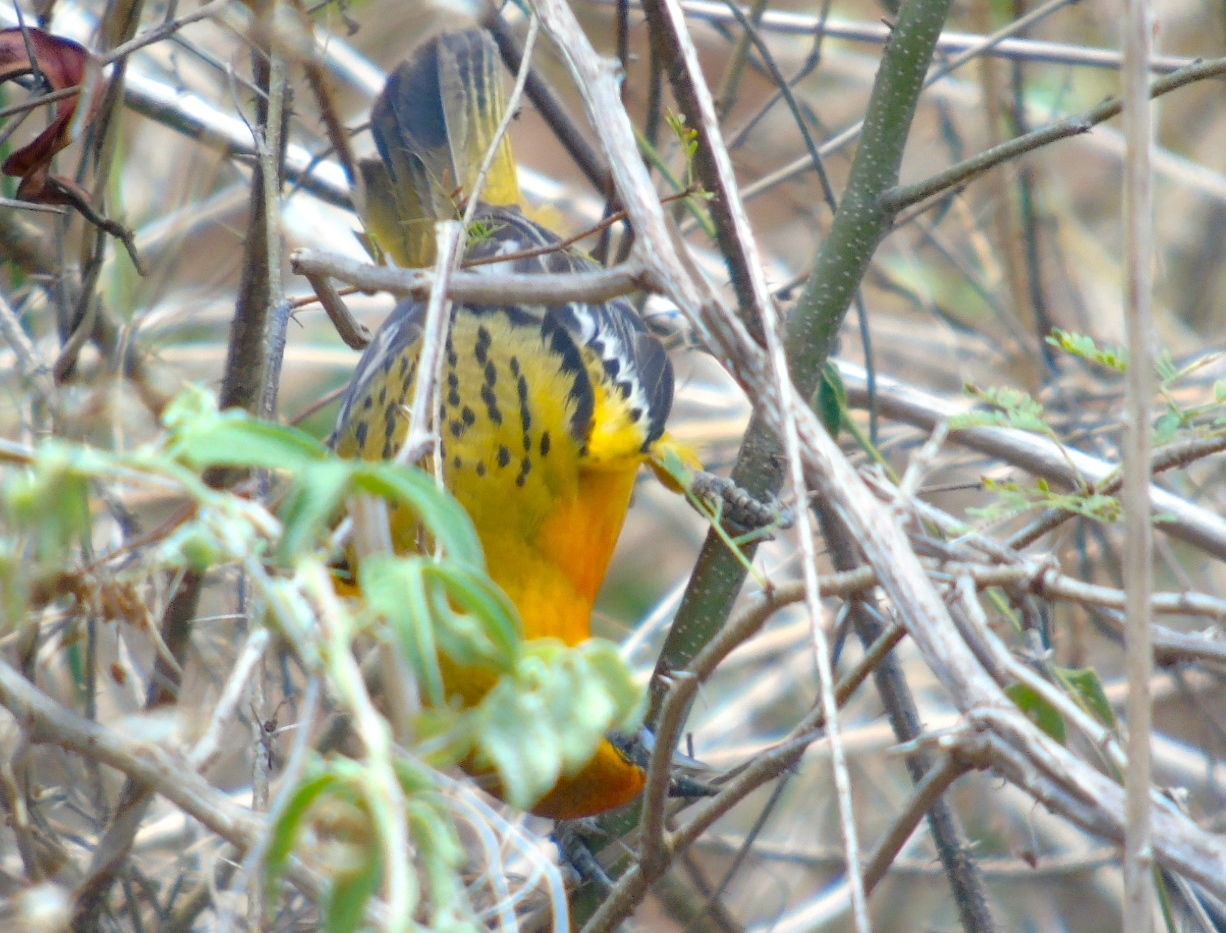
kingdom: Animalia
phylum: Chordata
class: Aves
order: Passeriformes
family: Icteridae
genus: Icterus
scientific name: Icterus pustulatus
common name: Streak-backed oriole
